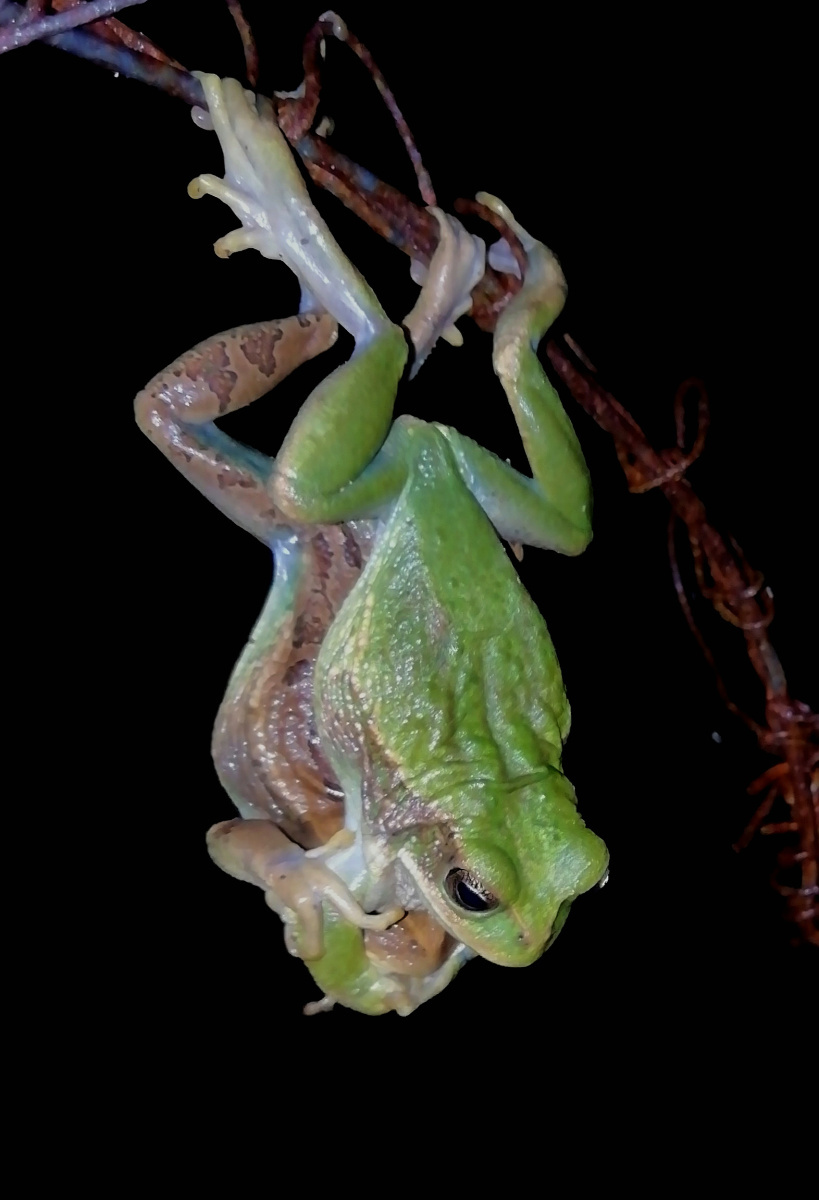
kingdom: Animalia
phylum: Chordata
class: Amphibia
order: Anura
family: Hemiphractidae
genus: Gastrotheca
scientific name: Gastrotheca cuencana
